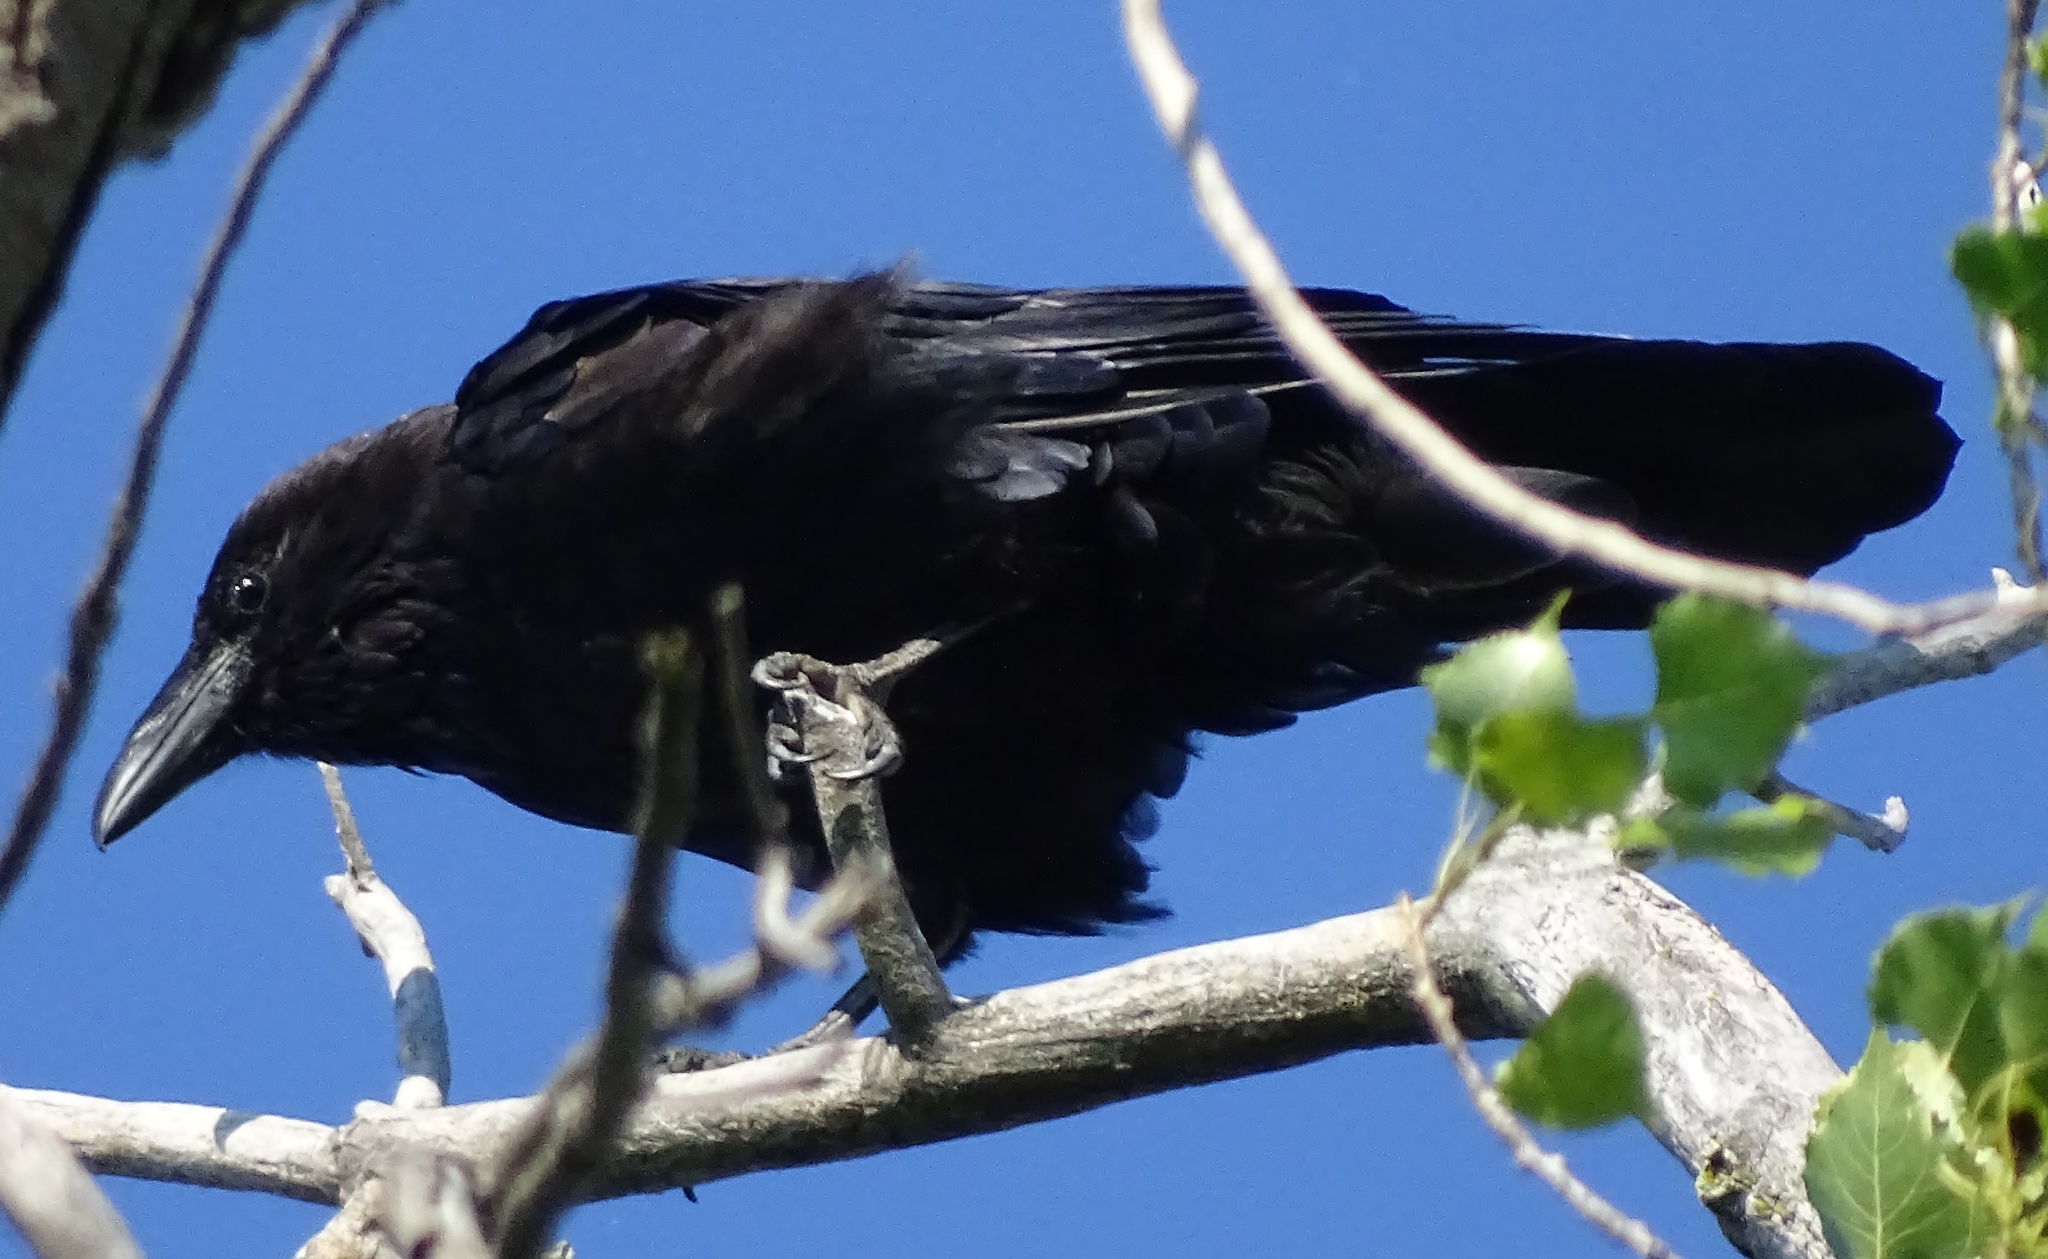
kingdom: Animalia
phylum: Chordata
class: Aves
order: Passeriformes
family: Corvidae
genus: Corvus
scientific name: Corvus corax
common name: Common raven
